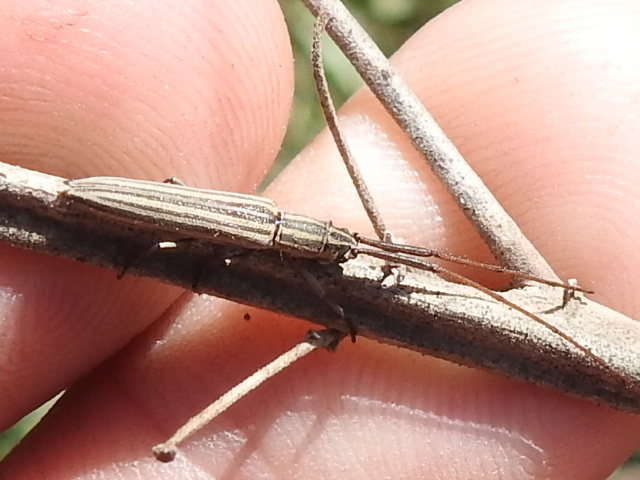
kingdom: Animalia
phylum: Arthropoda
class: Insecta
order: Coleoptera
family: Cerambycidae
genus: Hippopsis
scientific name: Hippopsis
